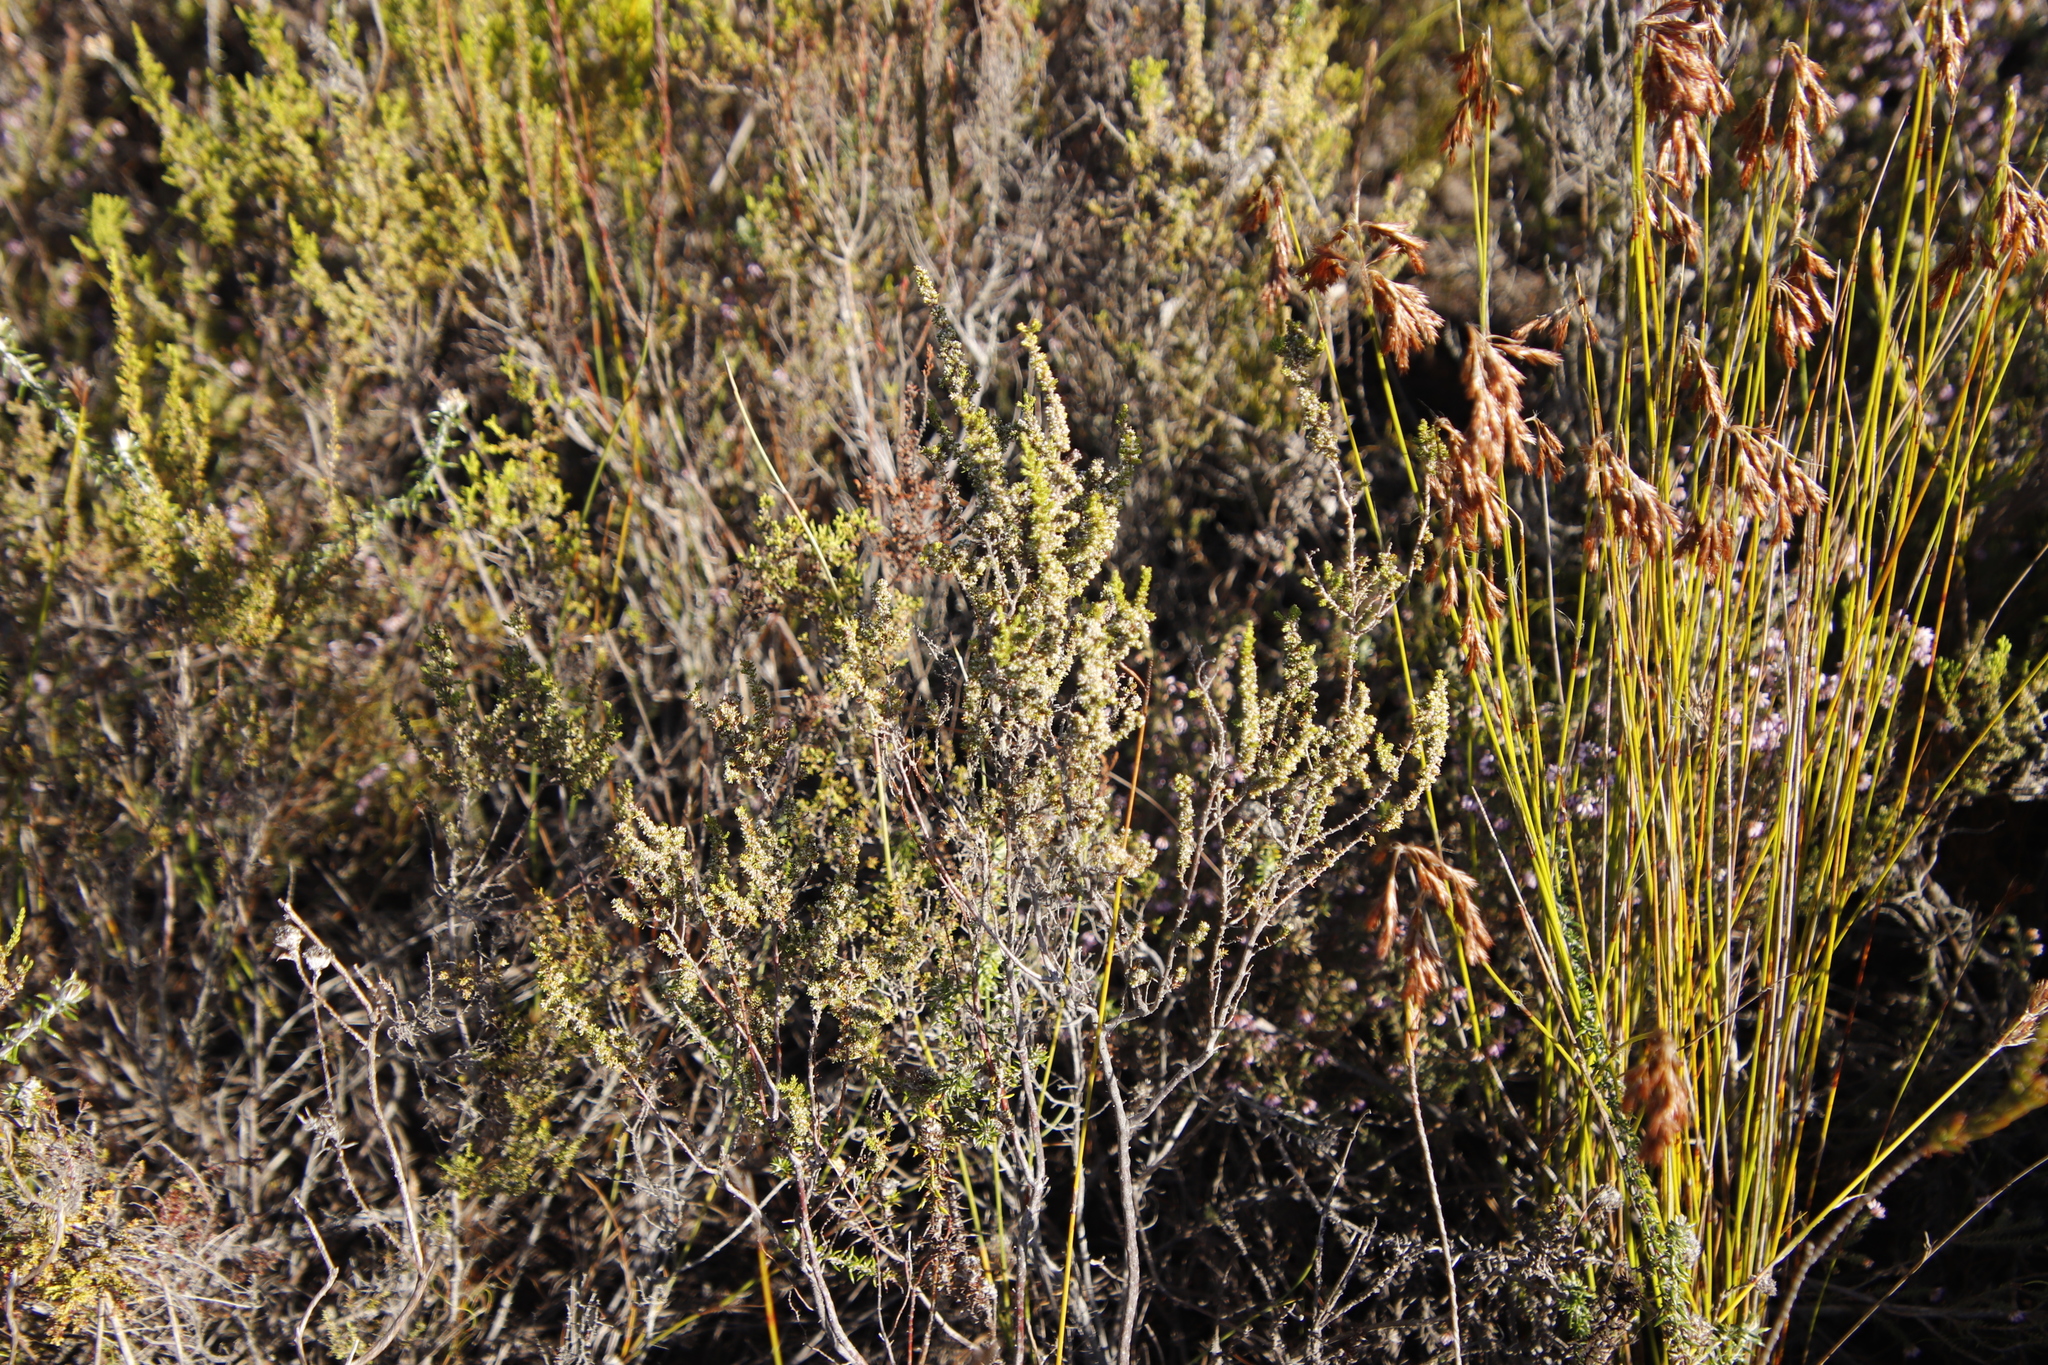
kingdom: Plantae
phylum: Tracheophyta
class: Magnoliopsida
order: Ericales
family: Ericaceae
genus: Erica
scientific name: Erica muscosa
